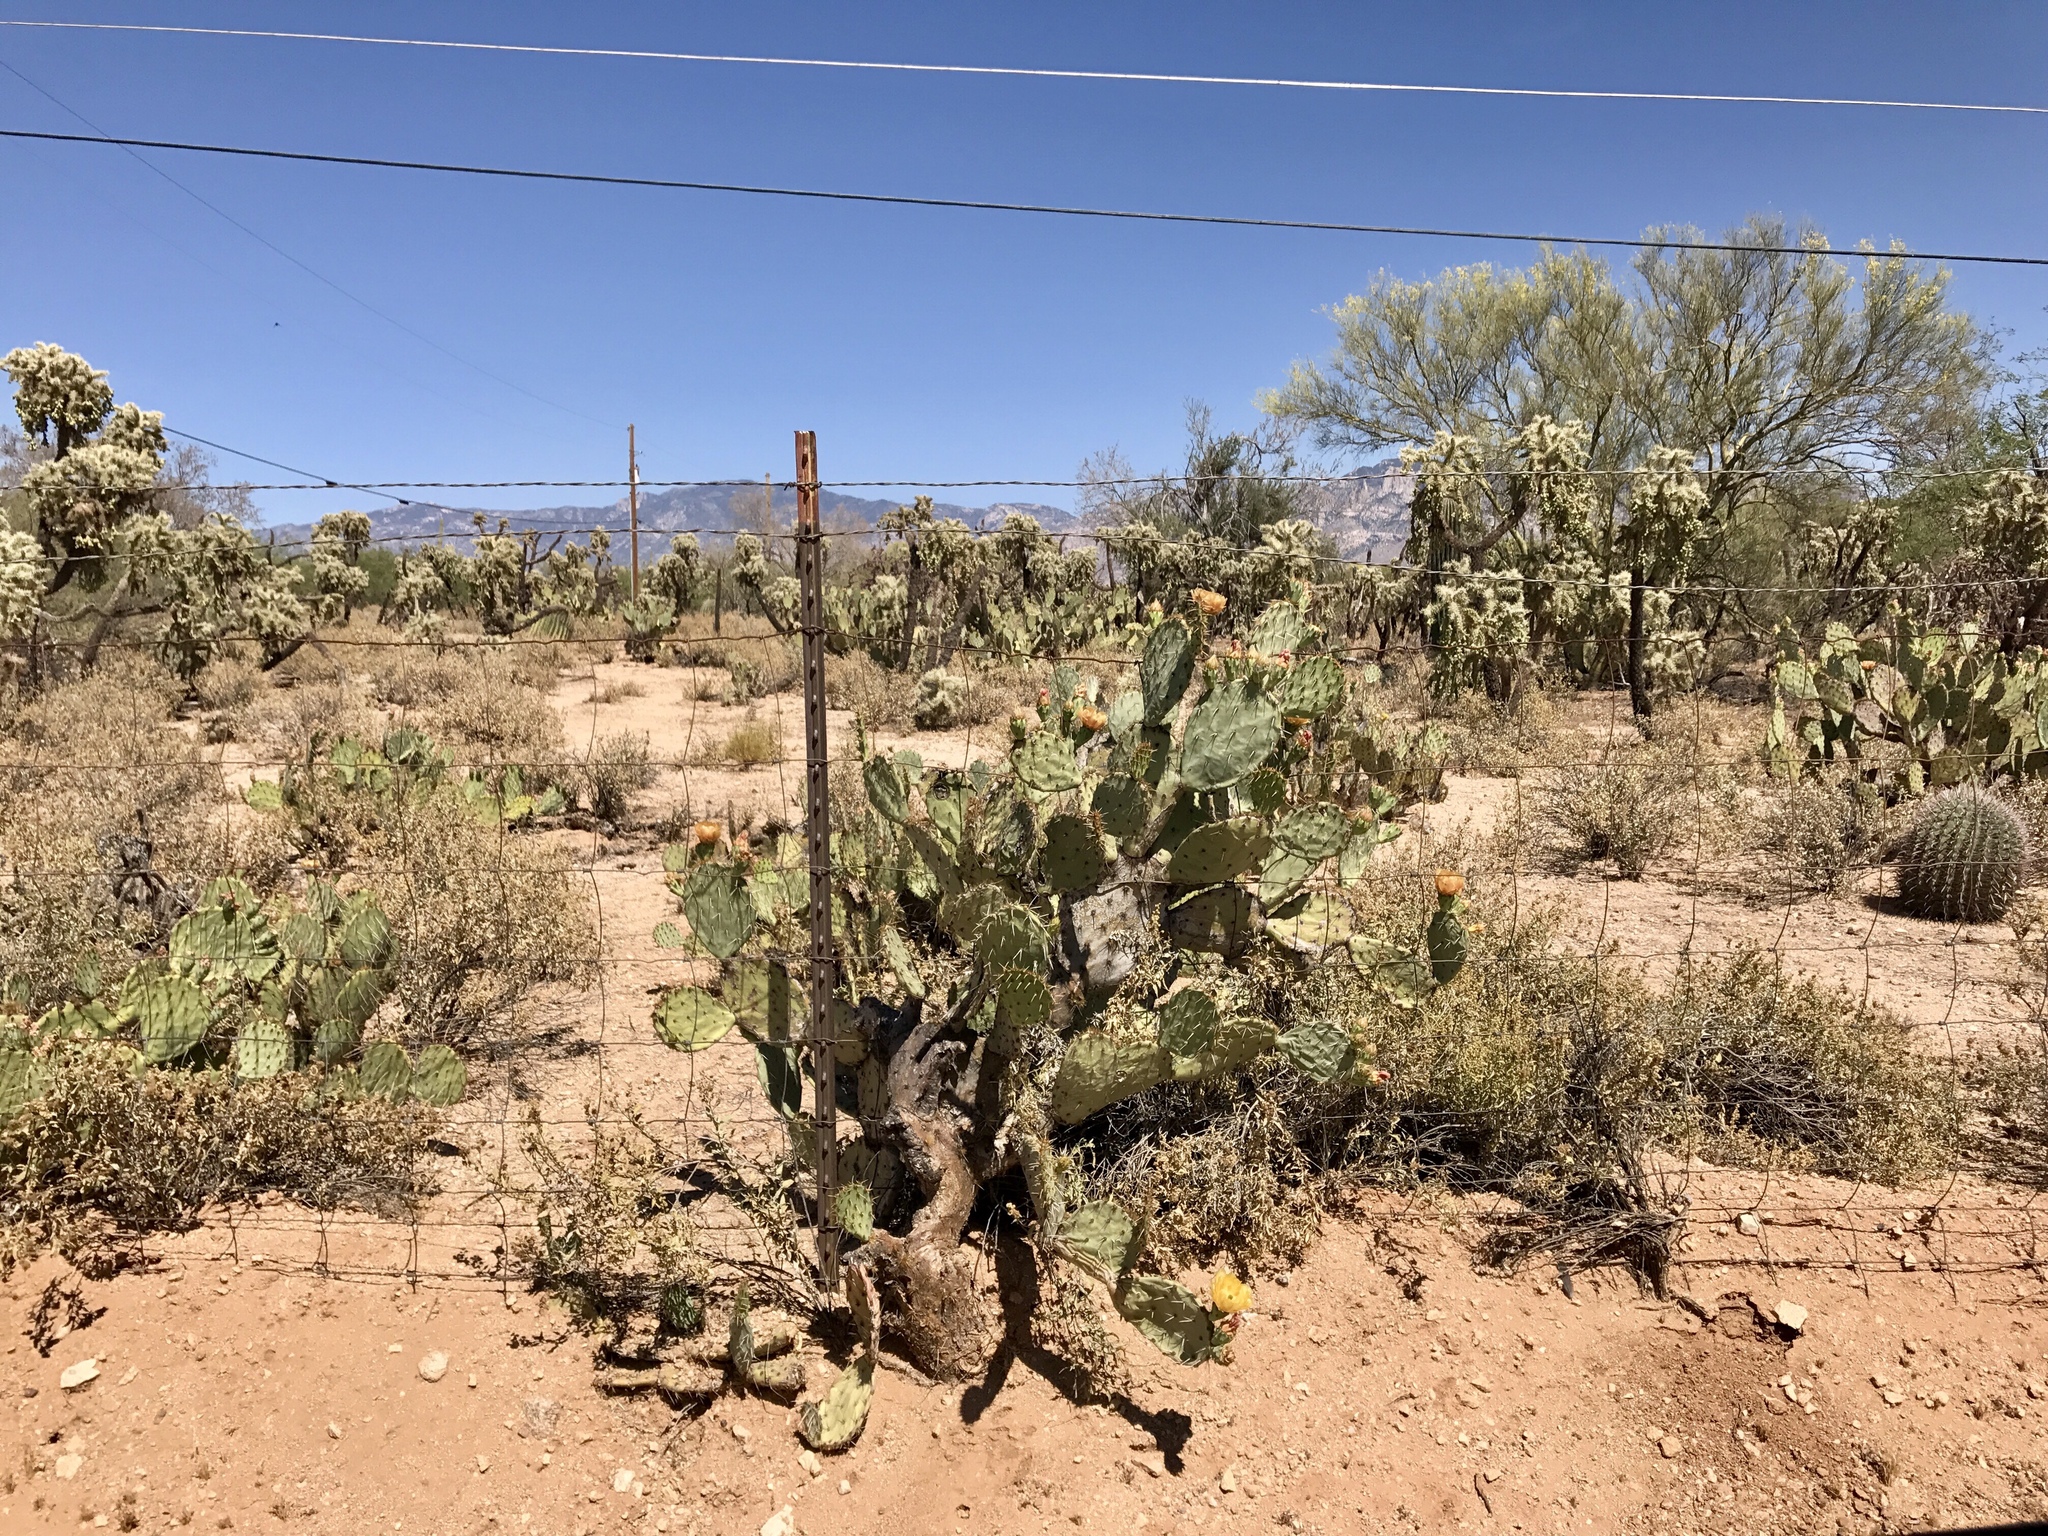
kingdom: Plantae
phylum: Tracheophyta
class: Magnoliopsida
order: Caryophyllales
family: Cactaceae
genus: Opuntia
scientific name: Opuntia engelmannii
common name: Cactus-apple
